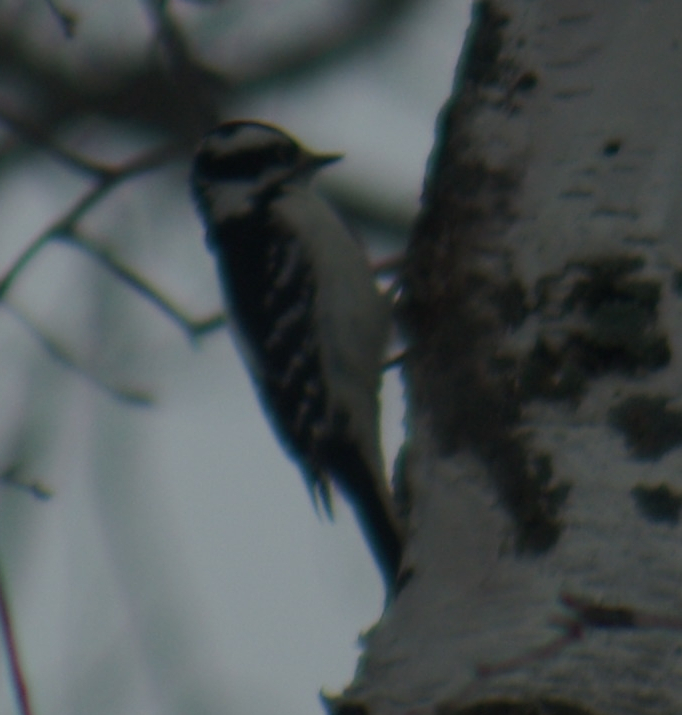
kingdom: Animalia
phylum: Chordata
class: Aves
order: Piciformes
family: Picidae
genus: Dryobates
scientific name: Dryobates pubescens
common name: Downy woodpecker
